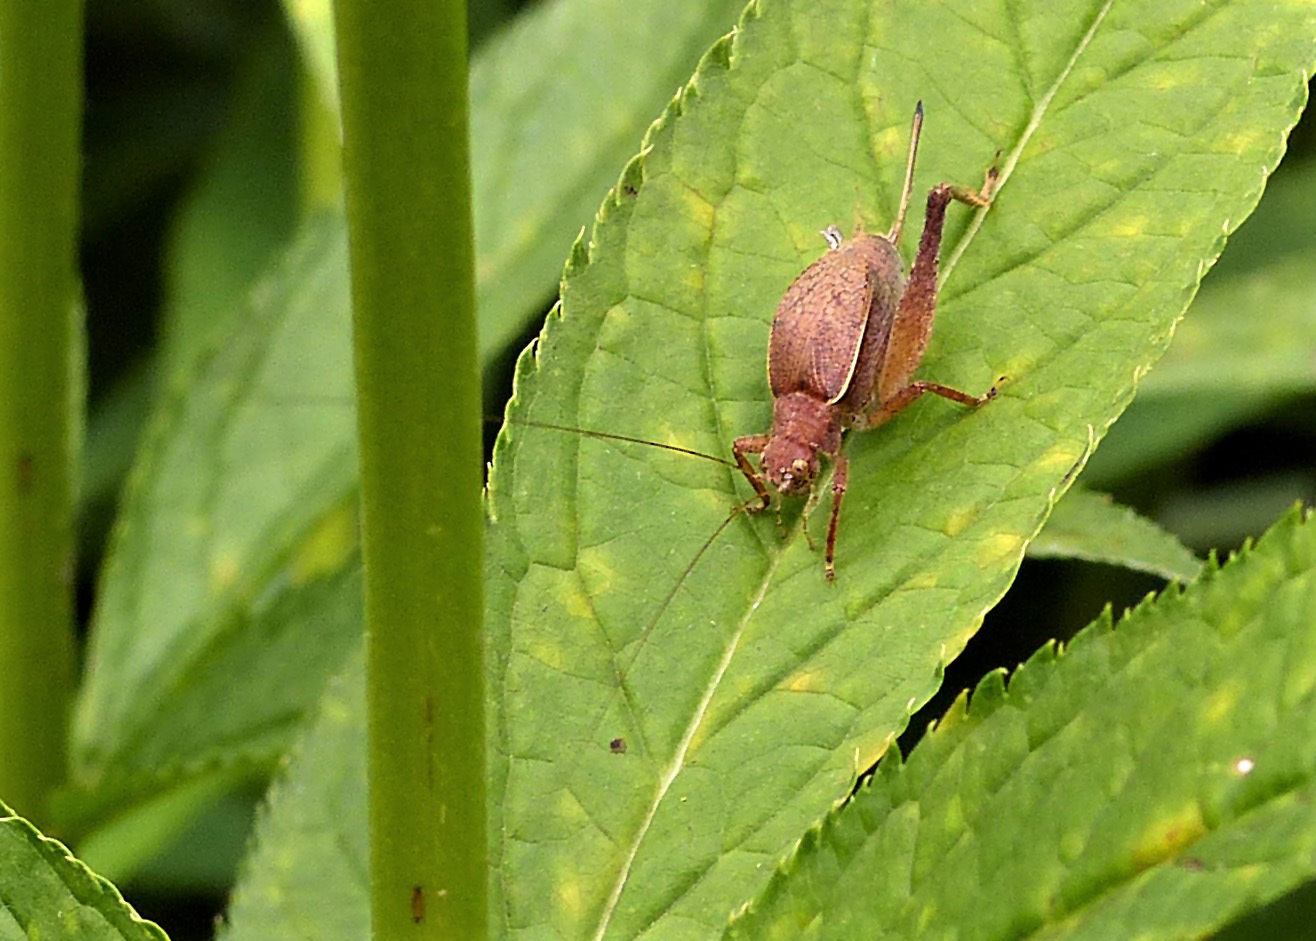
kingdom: Animalia
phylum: Arthropoda
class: Insecta
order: Orthoptera
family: Gryllidae
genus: Hapithus
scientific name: Hapithus agitator
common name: Restless bush cricket
